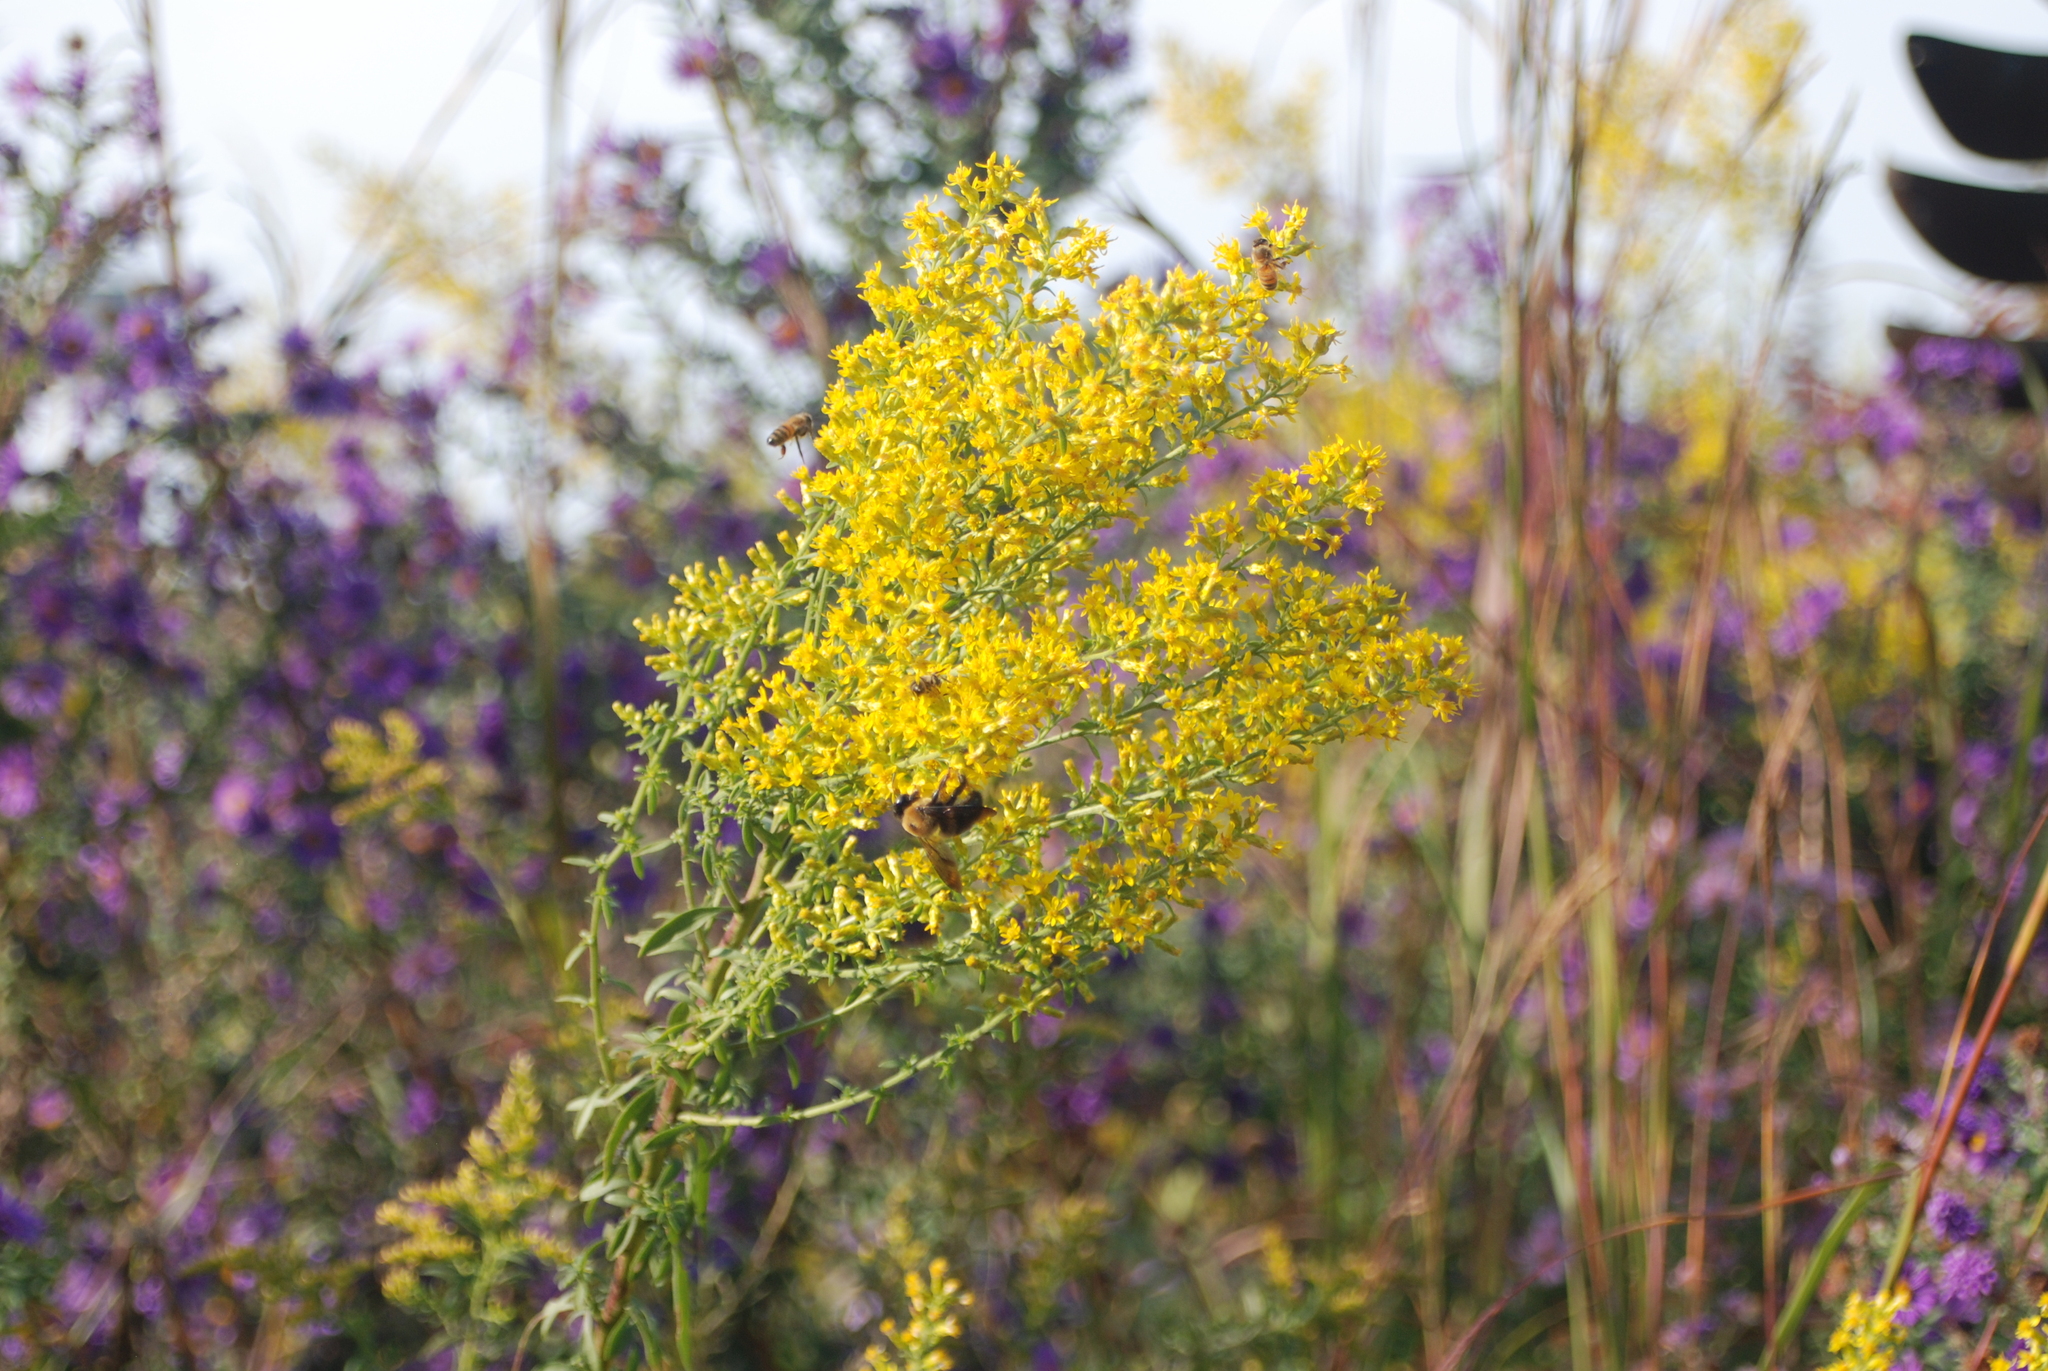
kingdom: Animalia
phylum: Arthropoda
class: Insecta
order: Hymenoptera
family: Apidae
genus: Apis
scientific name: Apis mellifera
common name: Honey bee
